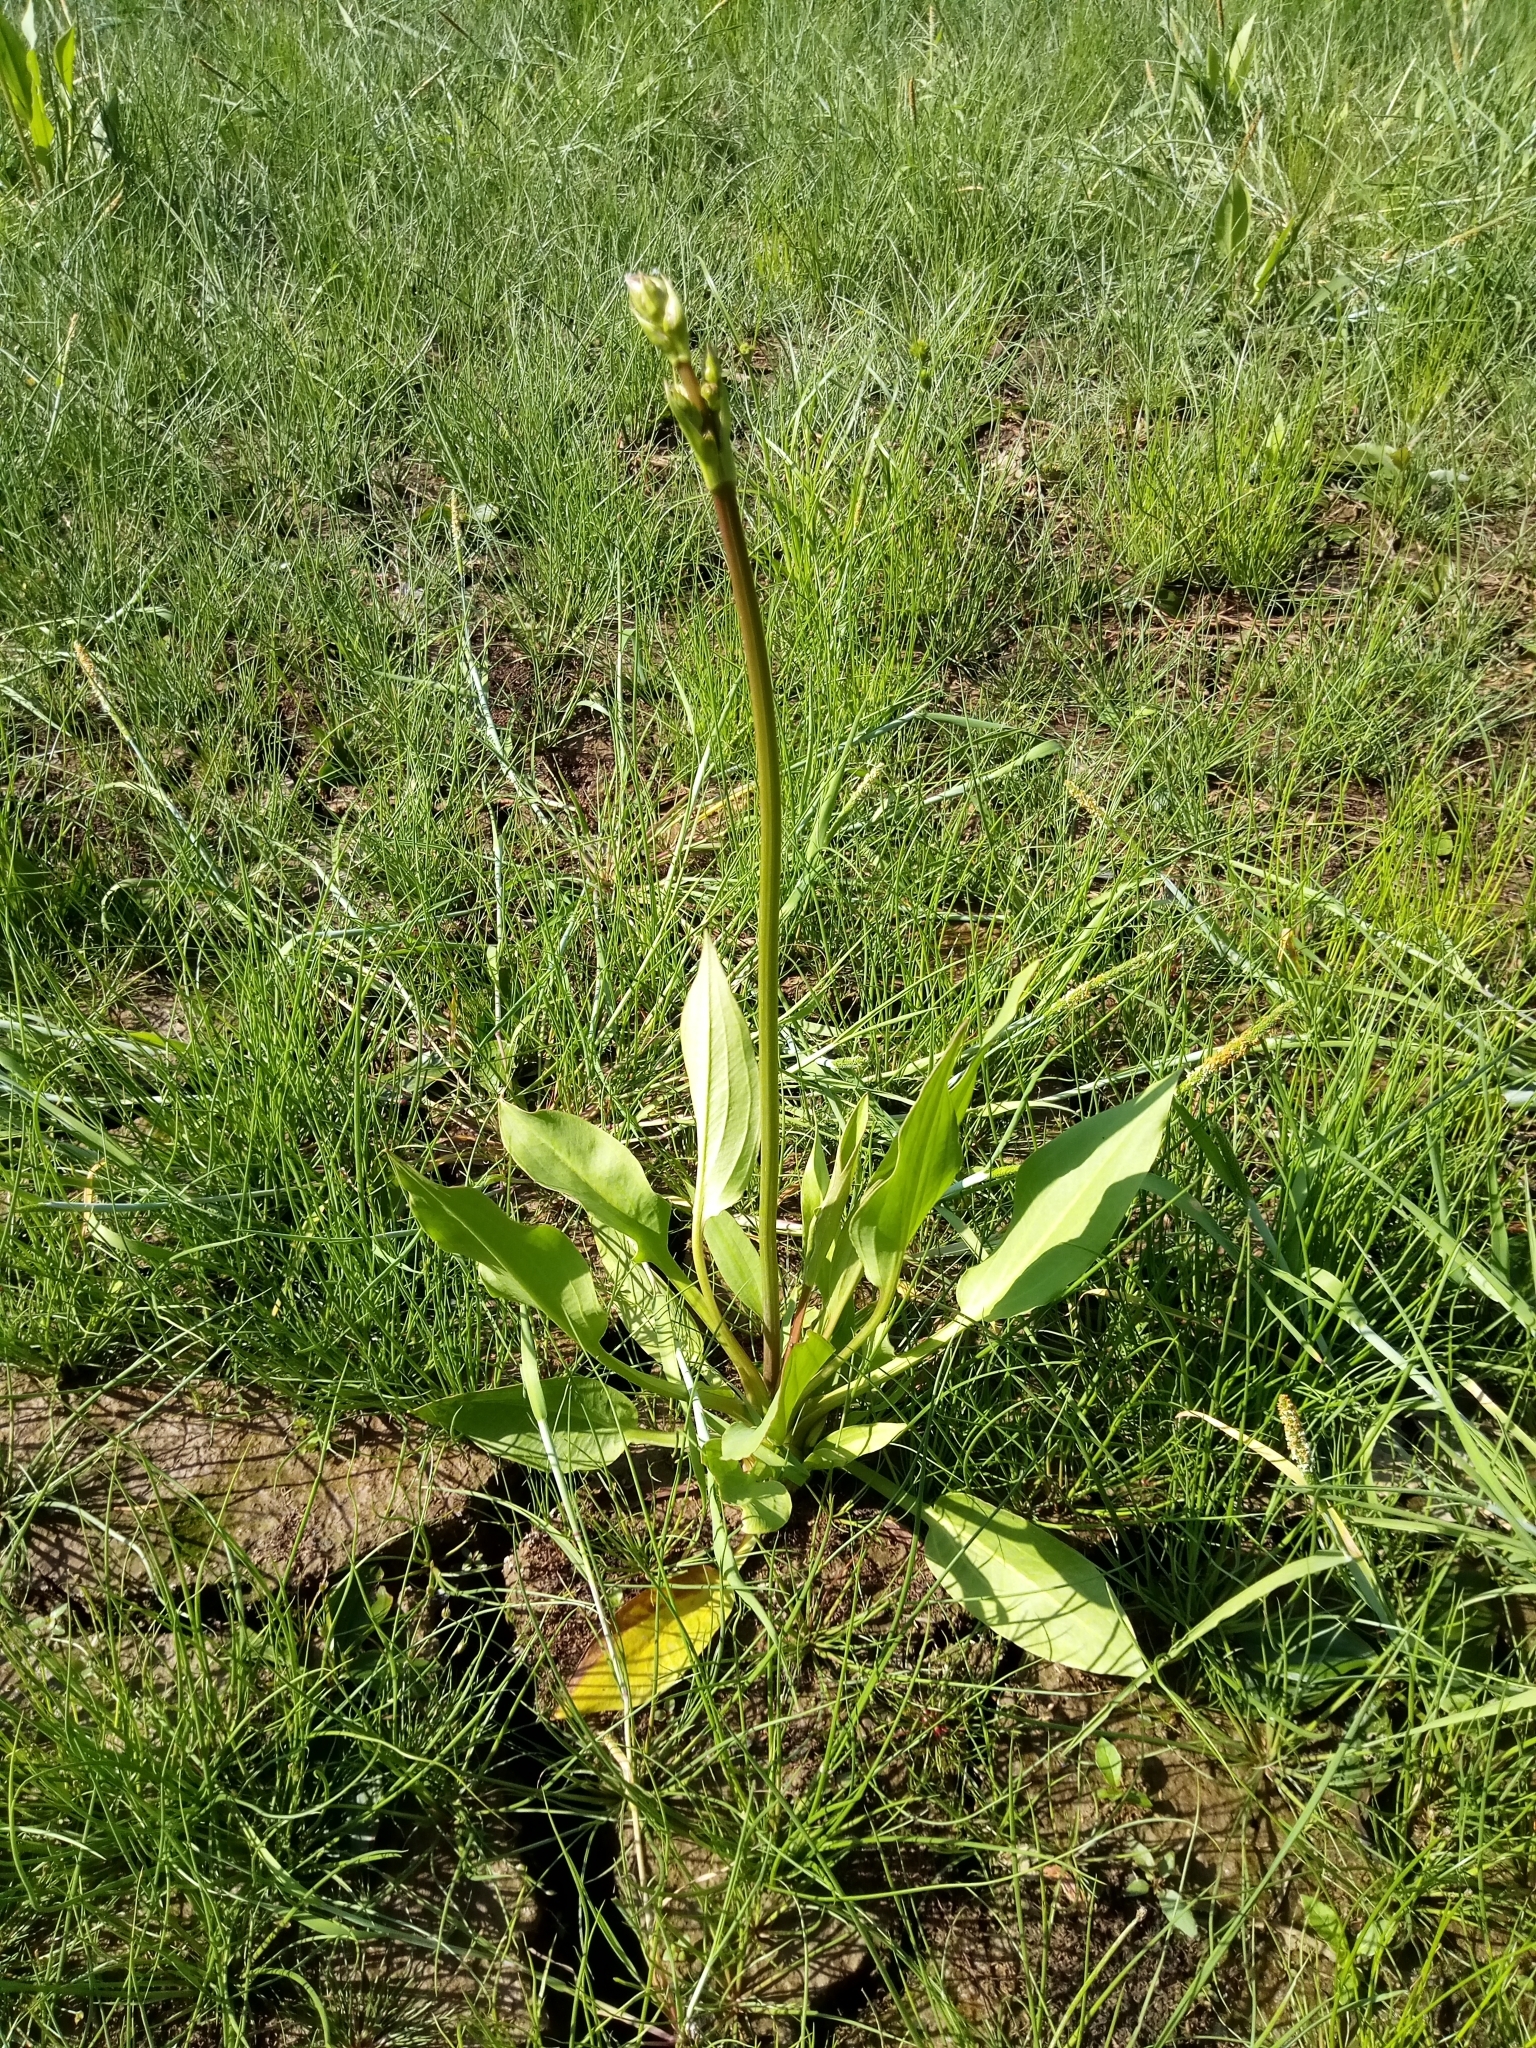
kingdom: Plantae
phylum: Tracheophyta
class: Liliopsida
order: Alismatales
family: Alismataceae
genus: Alisma
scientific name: Alisma plantago-aquatica
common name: Water-plantain
